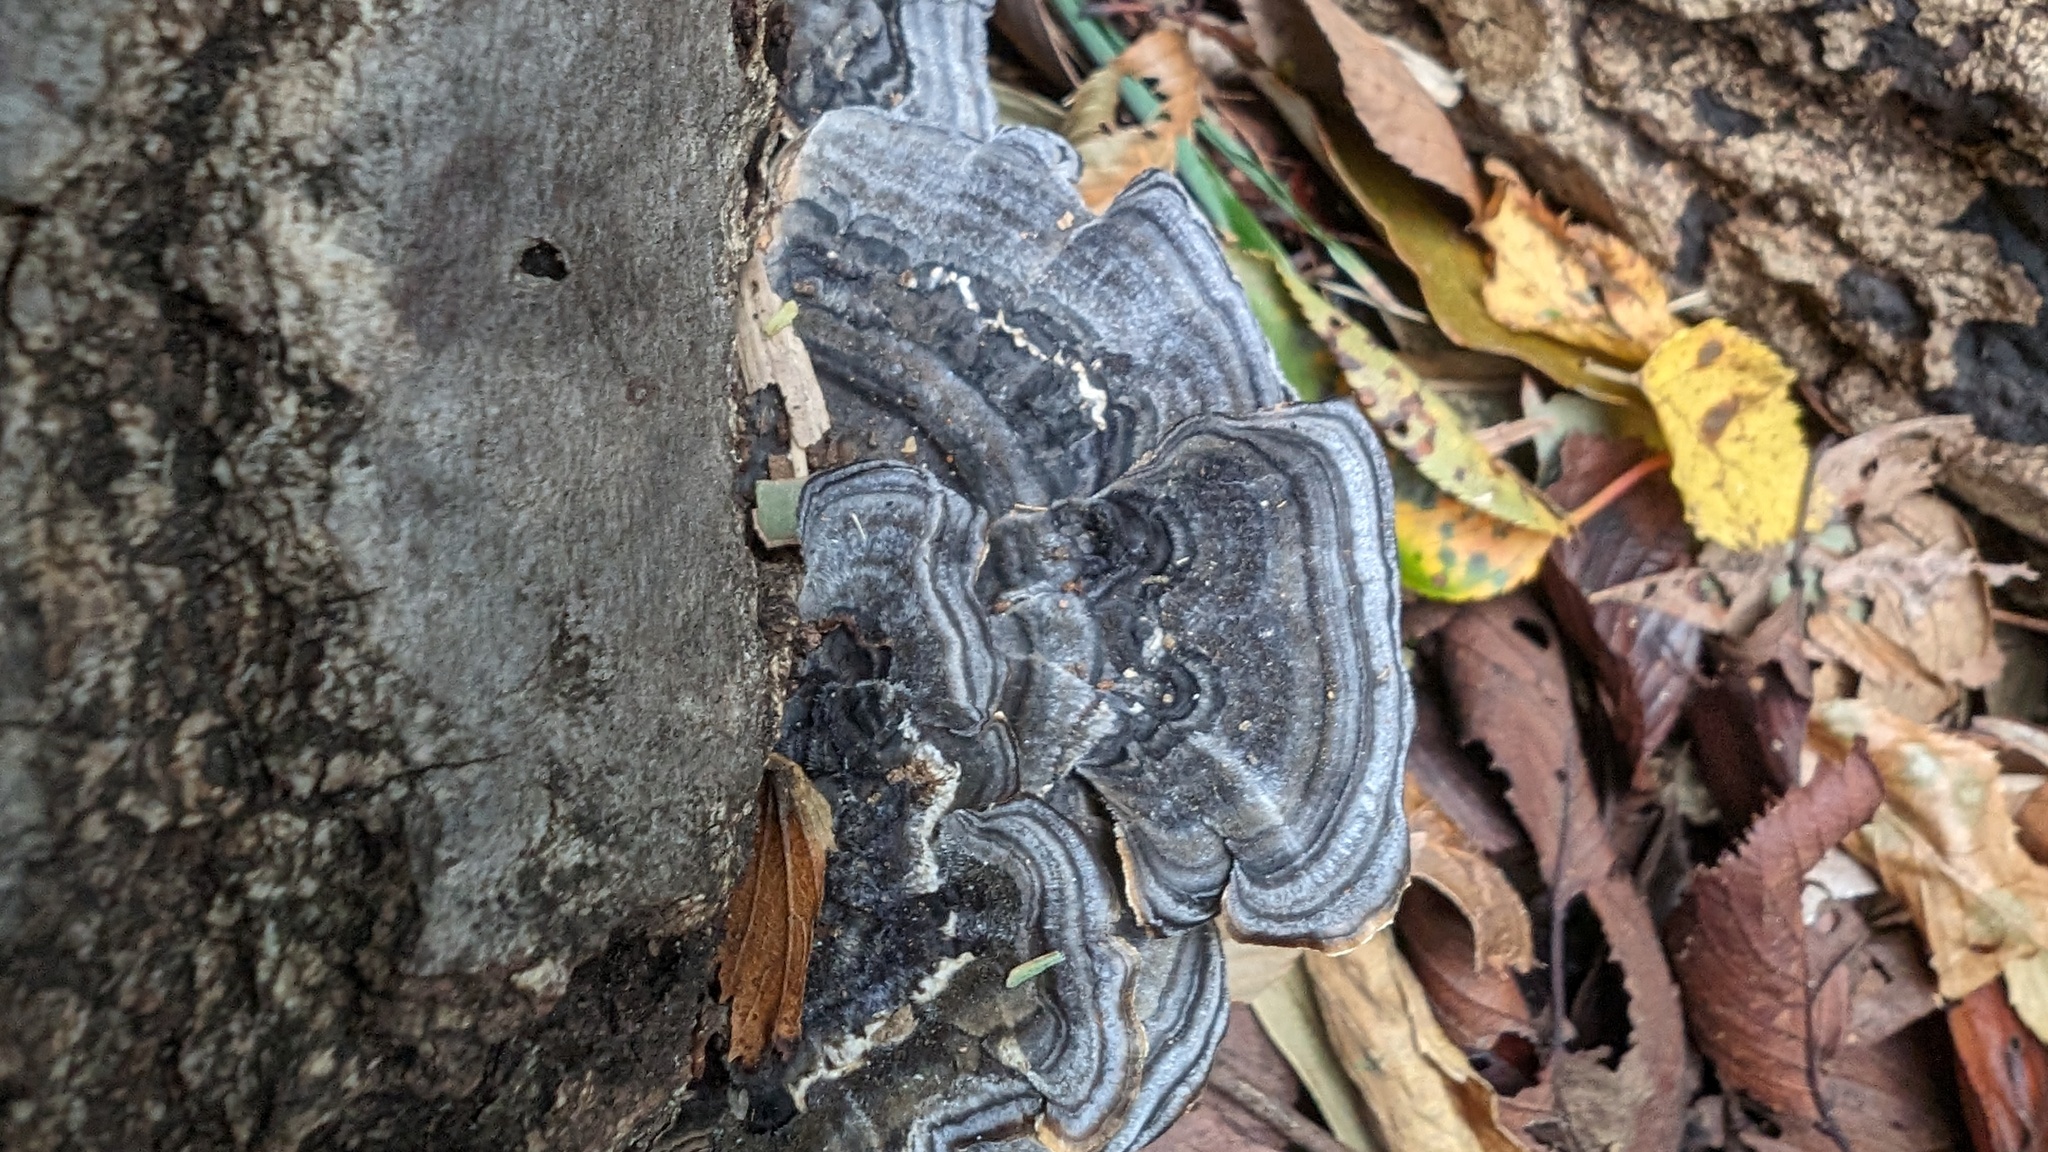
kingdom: Fungi
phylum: Basidiomycota
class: Agaricomycetes
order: Polyporales
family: Polyporaceae
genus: Trametes
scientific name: Trametes versicolor
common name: Turkeytail
